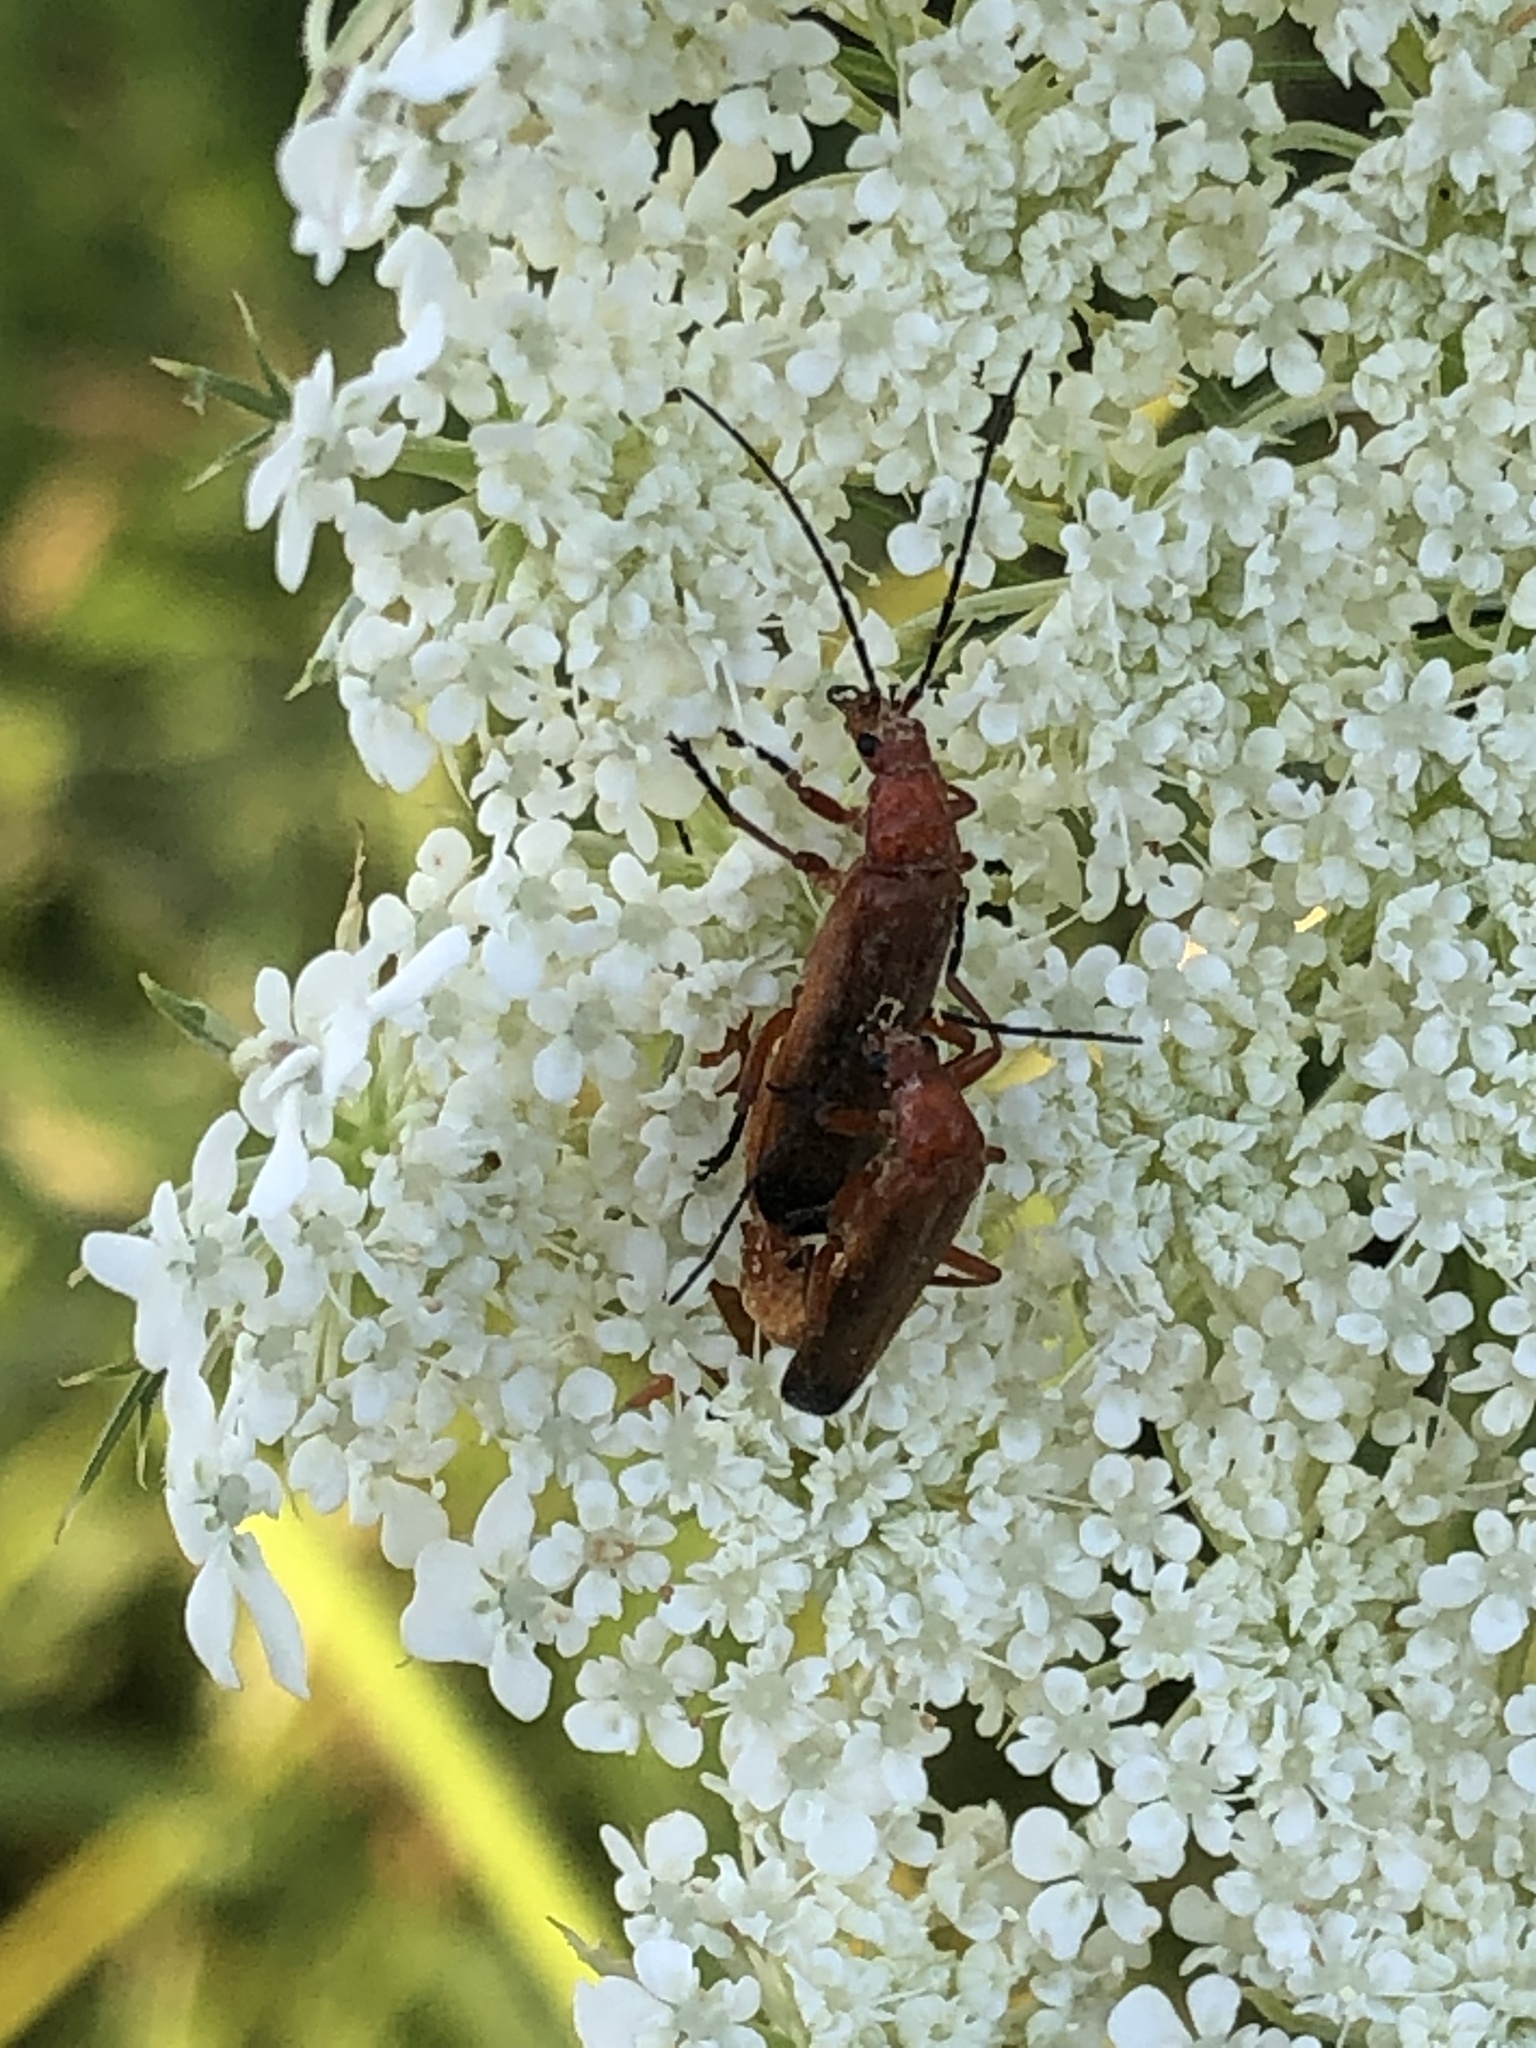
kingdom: Animalia
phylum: Arthropoda
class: Insecta
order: Coleoptera
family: Cantharidae
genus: Rhagonycha
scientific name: Rhagonycha fulva
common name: Common red soldier beetle
